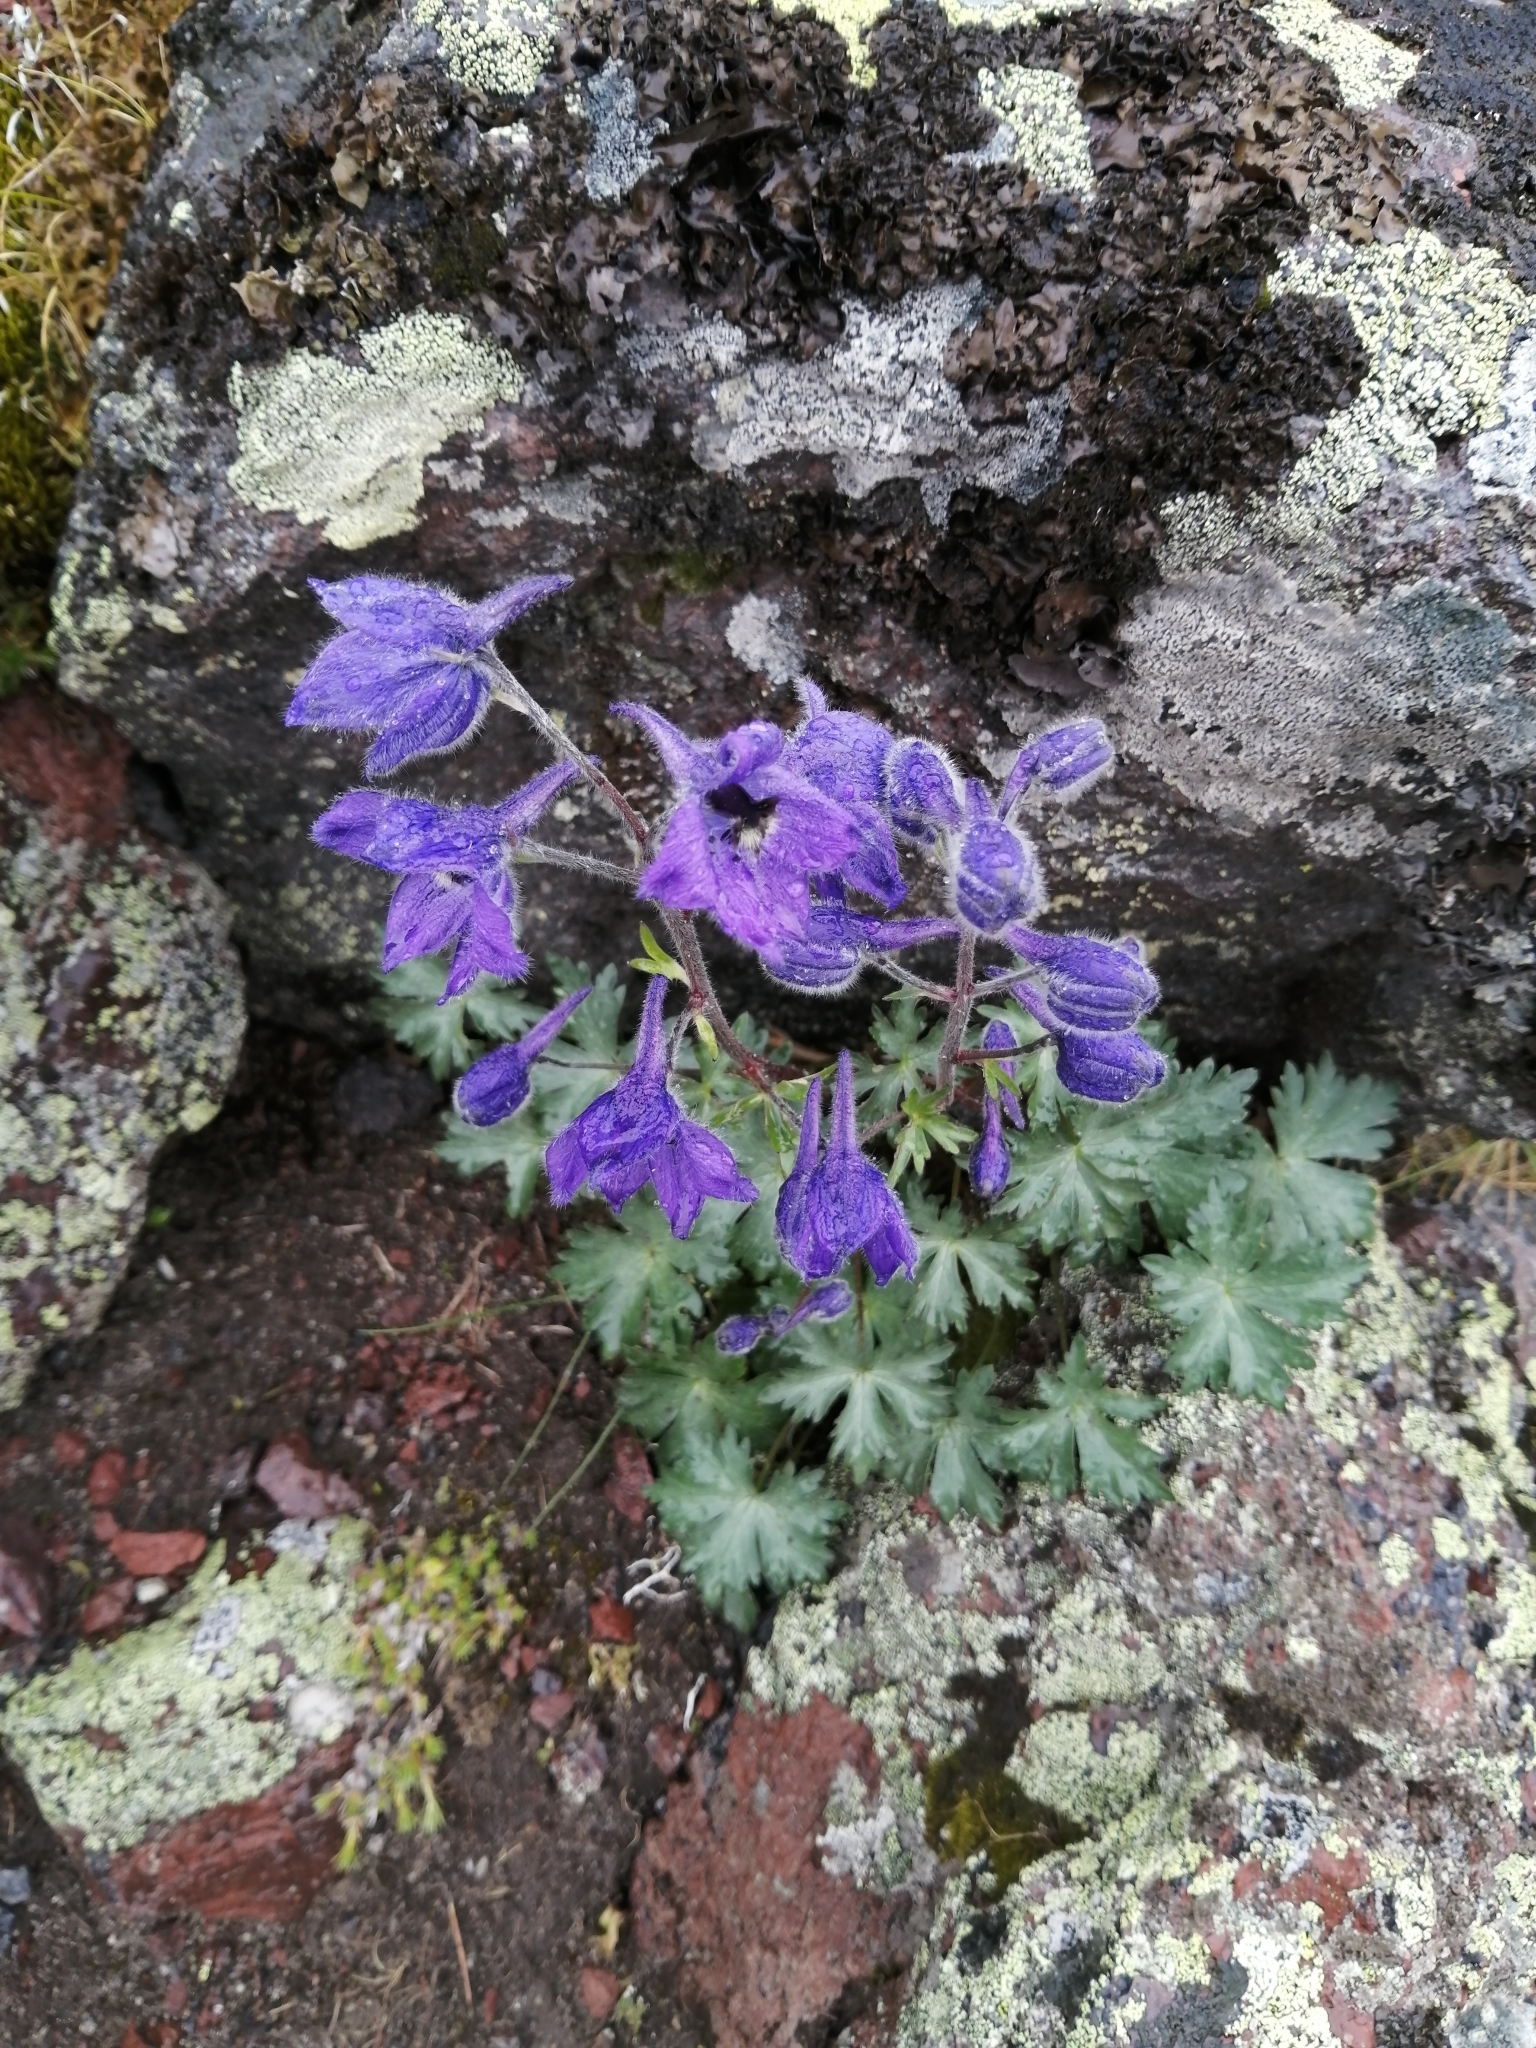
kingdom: Plantae
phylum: Tracheophyta
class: Magnoliopsida
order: Ranunculales
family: Ranunculaceae
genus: Delphinium
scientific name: Delphinium caucasicum
